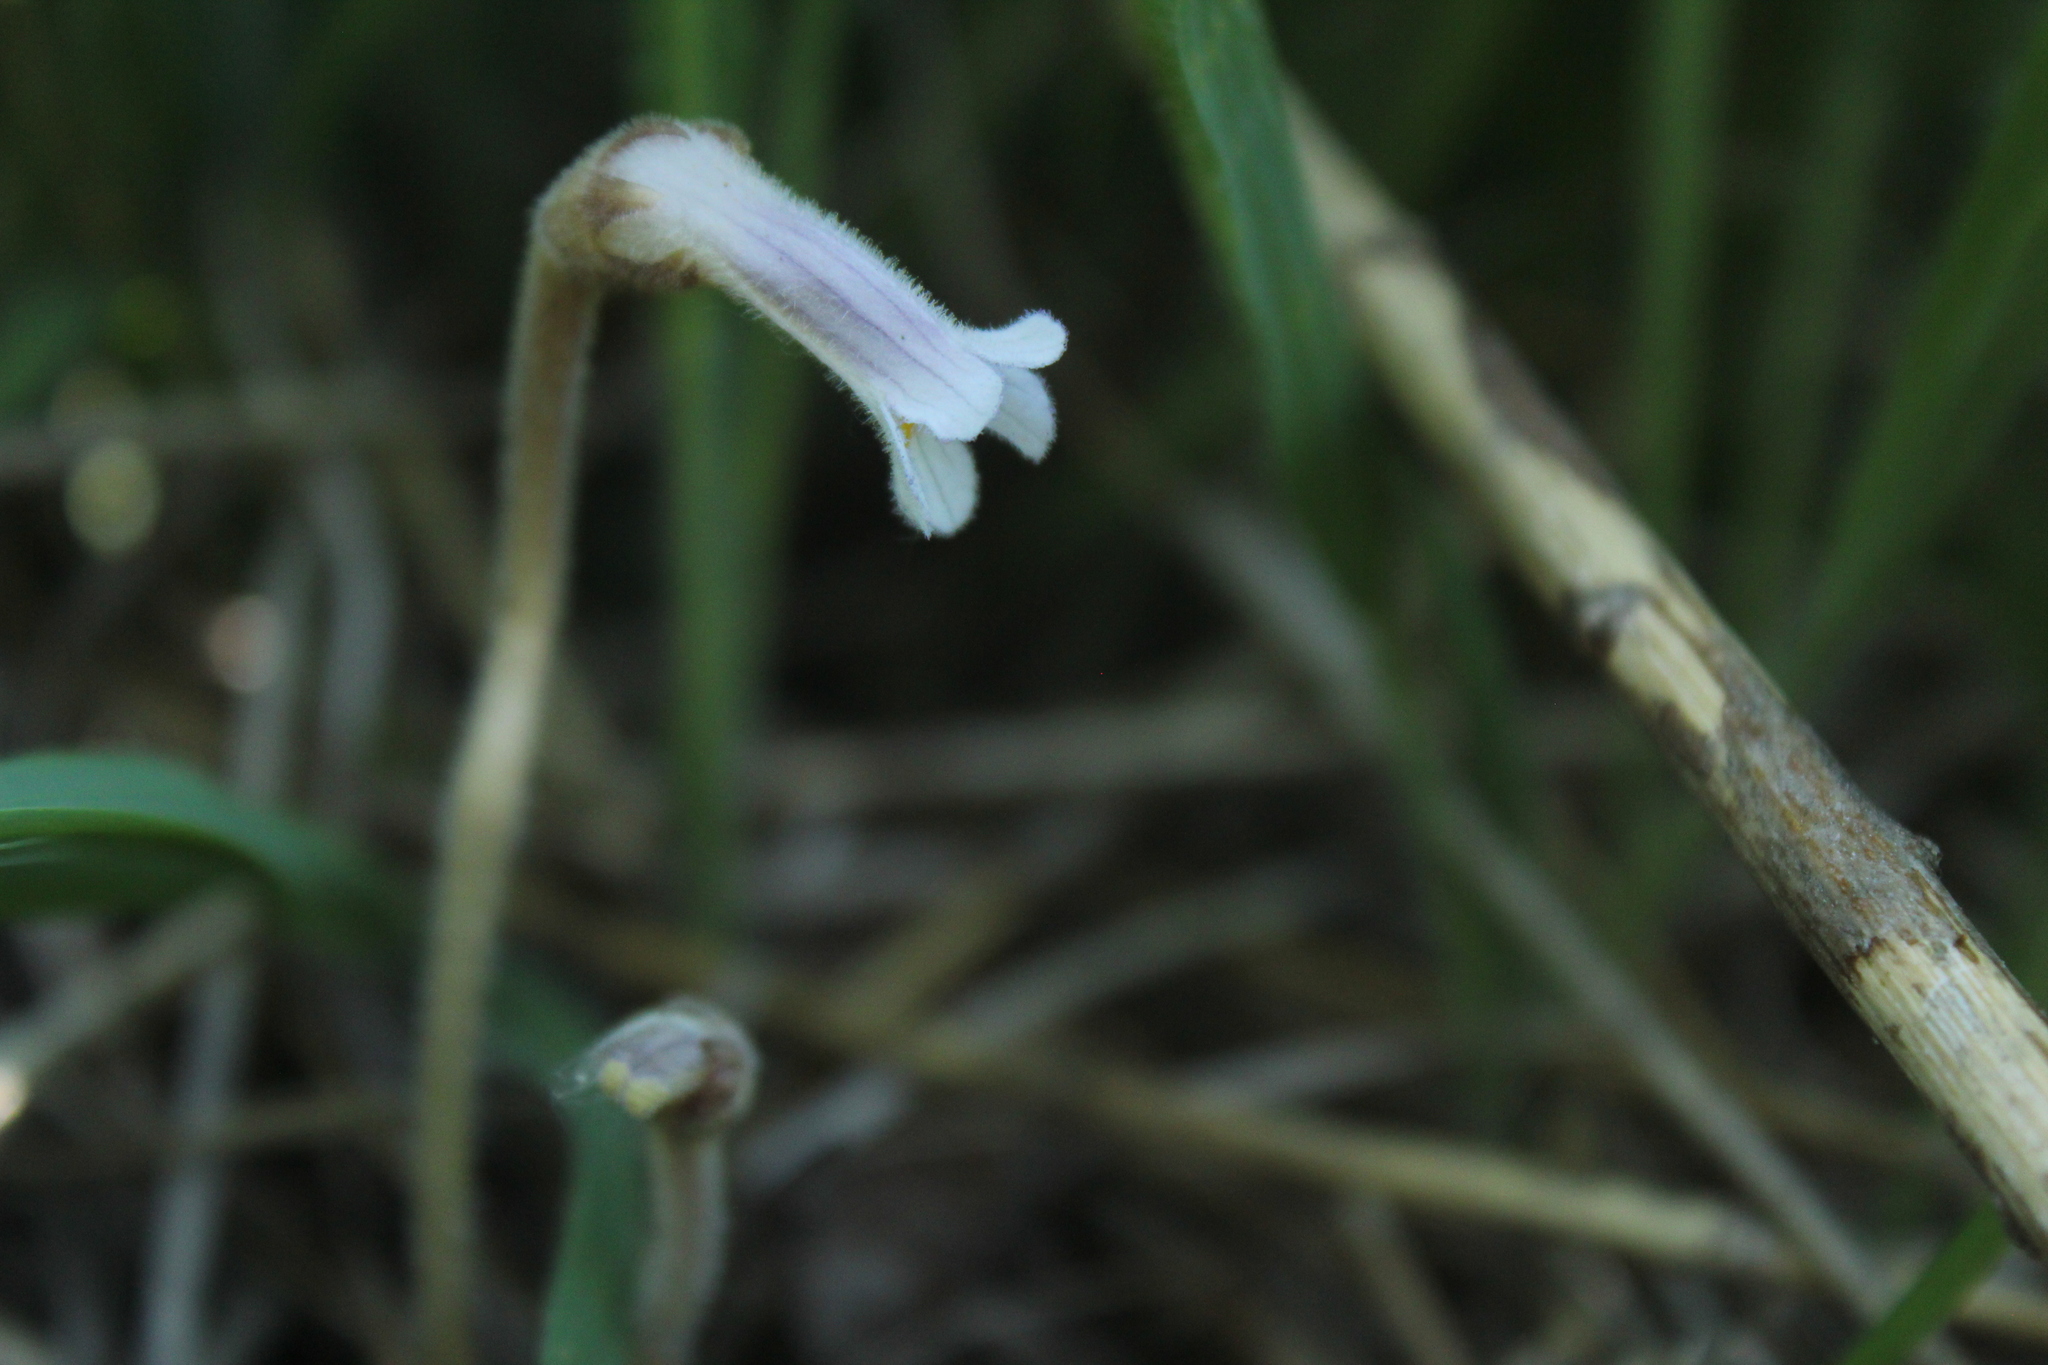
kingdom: Plantae
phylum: Tracheophyta
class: Magnoliopsida
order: Lamiales
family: Orobanchaceae
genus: Aphyllon
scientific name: Aphyllon uniflorum
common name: One-flowered broomrape
